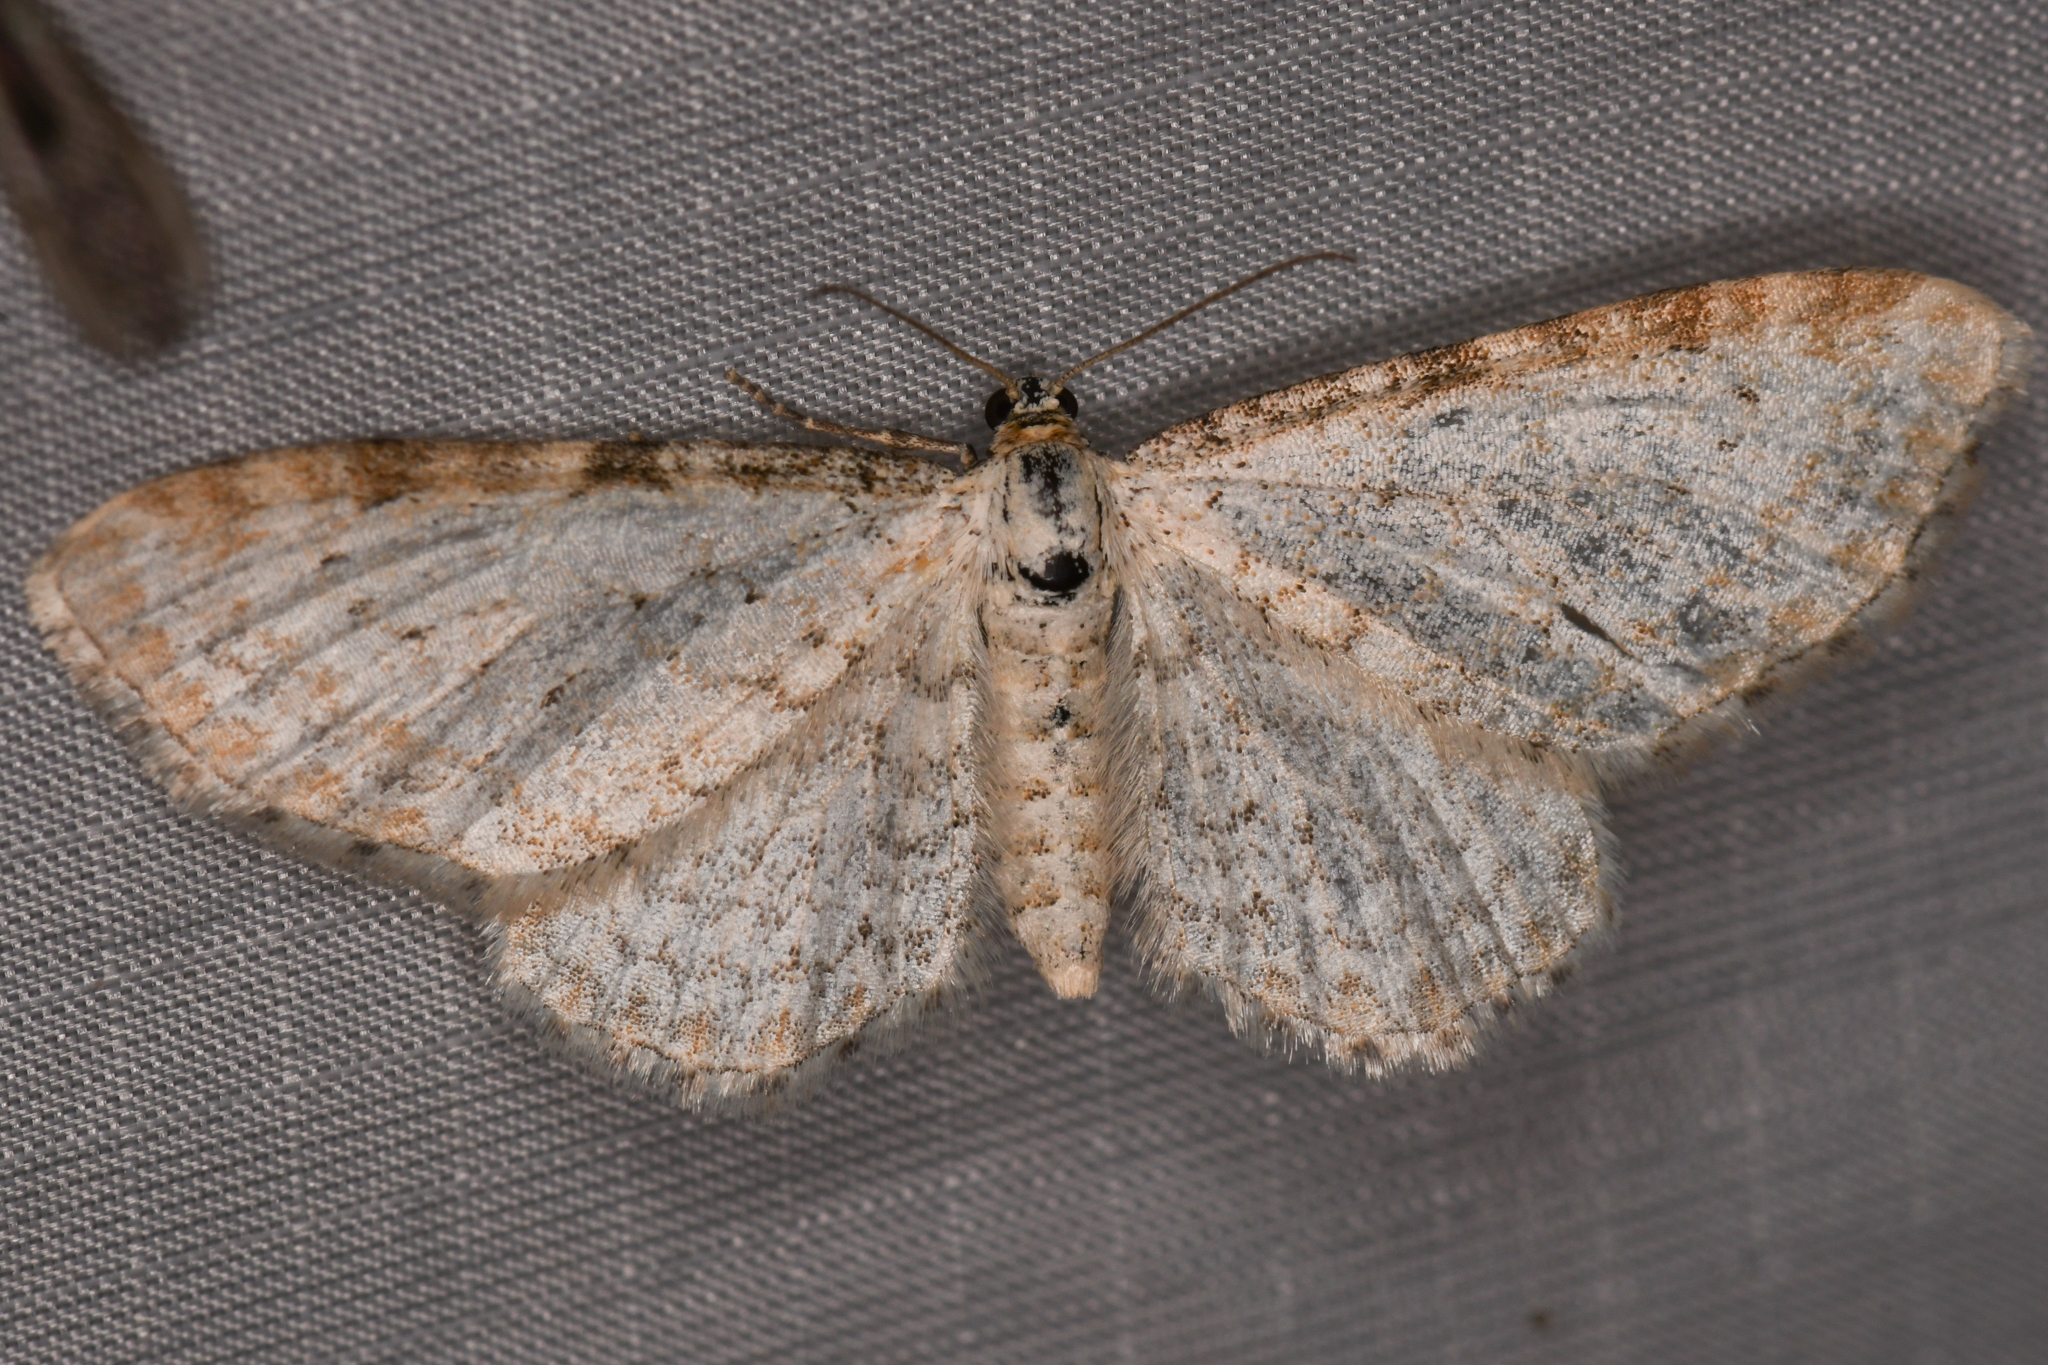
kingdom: Animalia
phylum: Arthropoda
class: Insecta
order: Lepidoptera
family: Geometridae
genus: Eupithecia
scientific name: Eupithecia cretaceata
